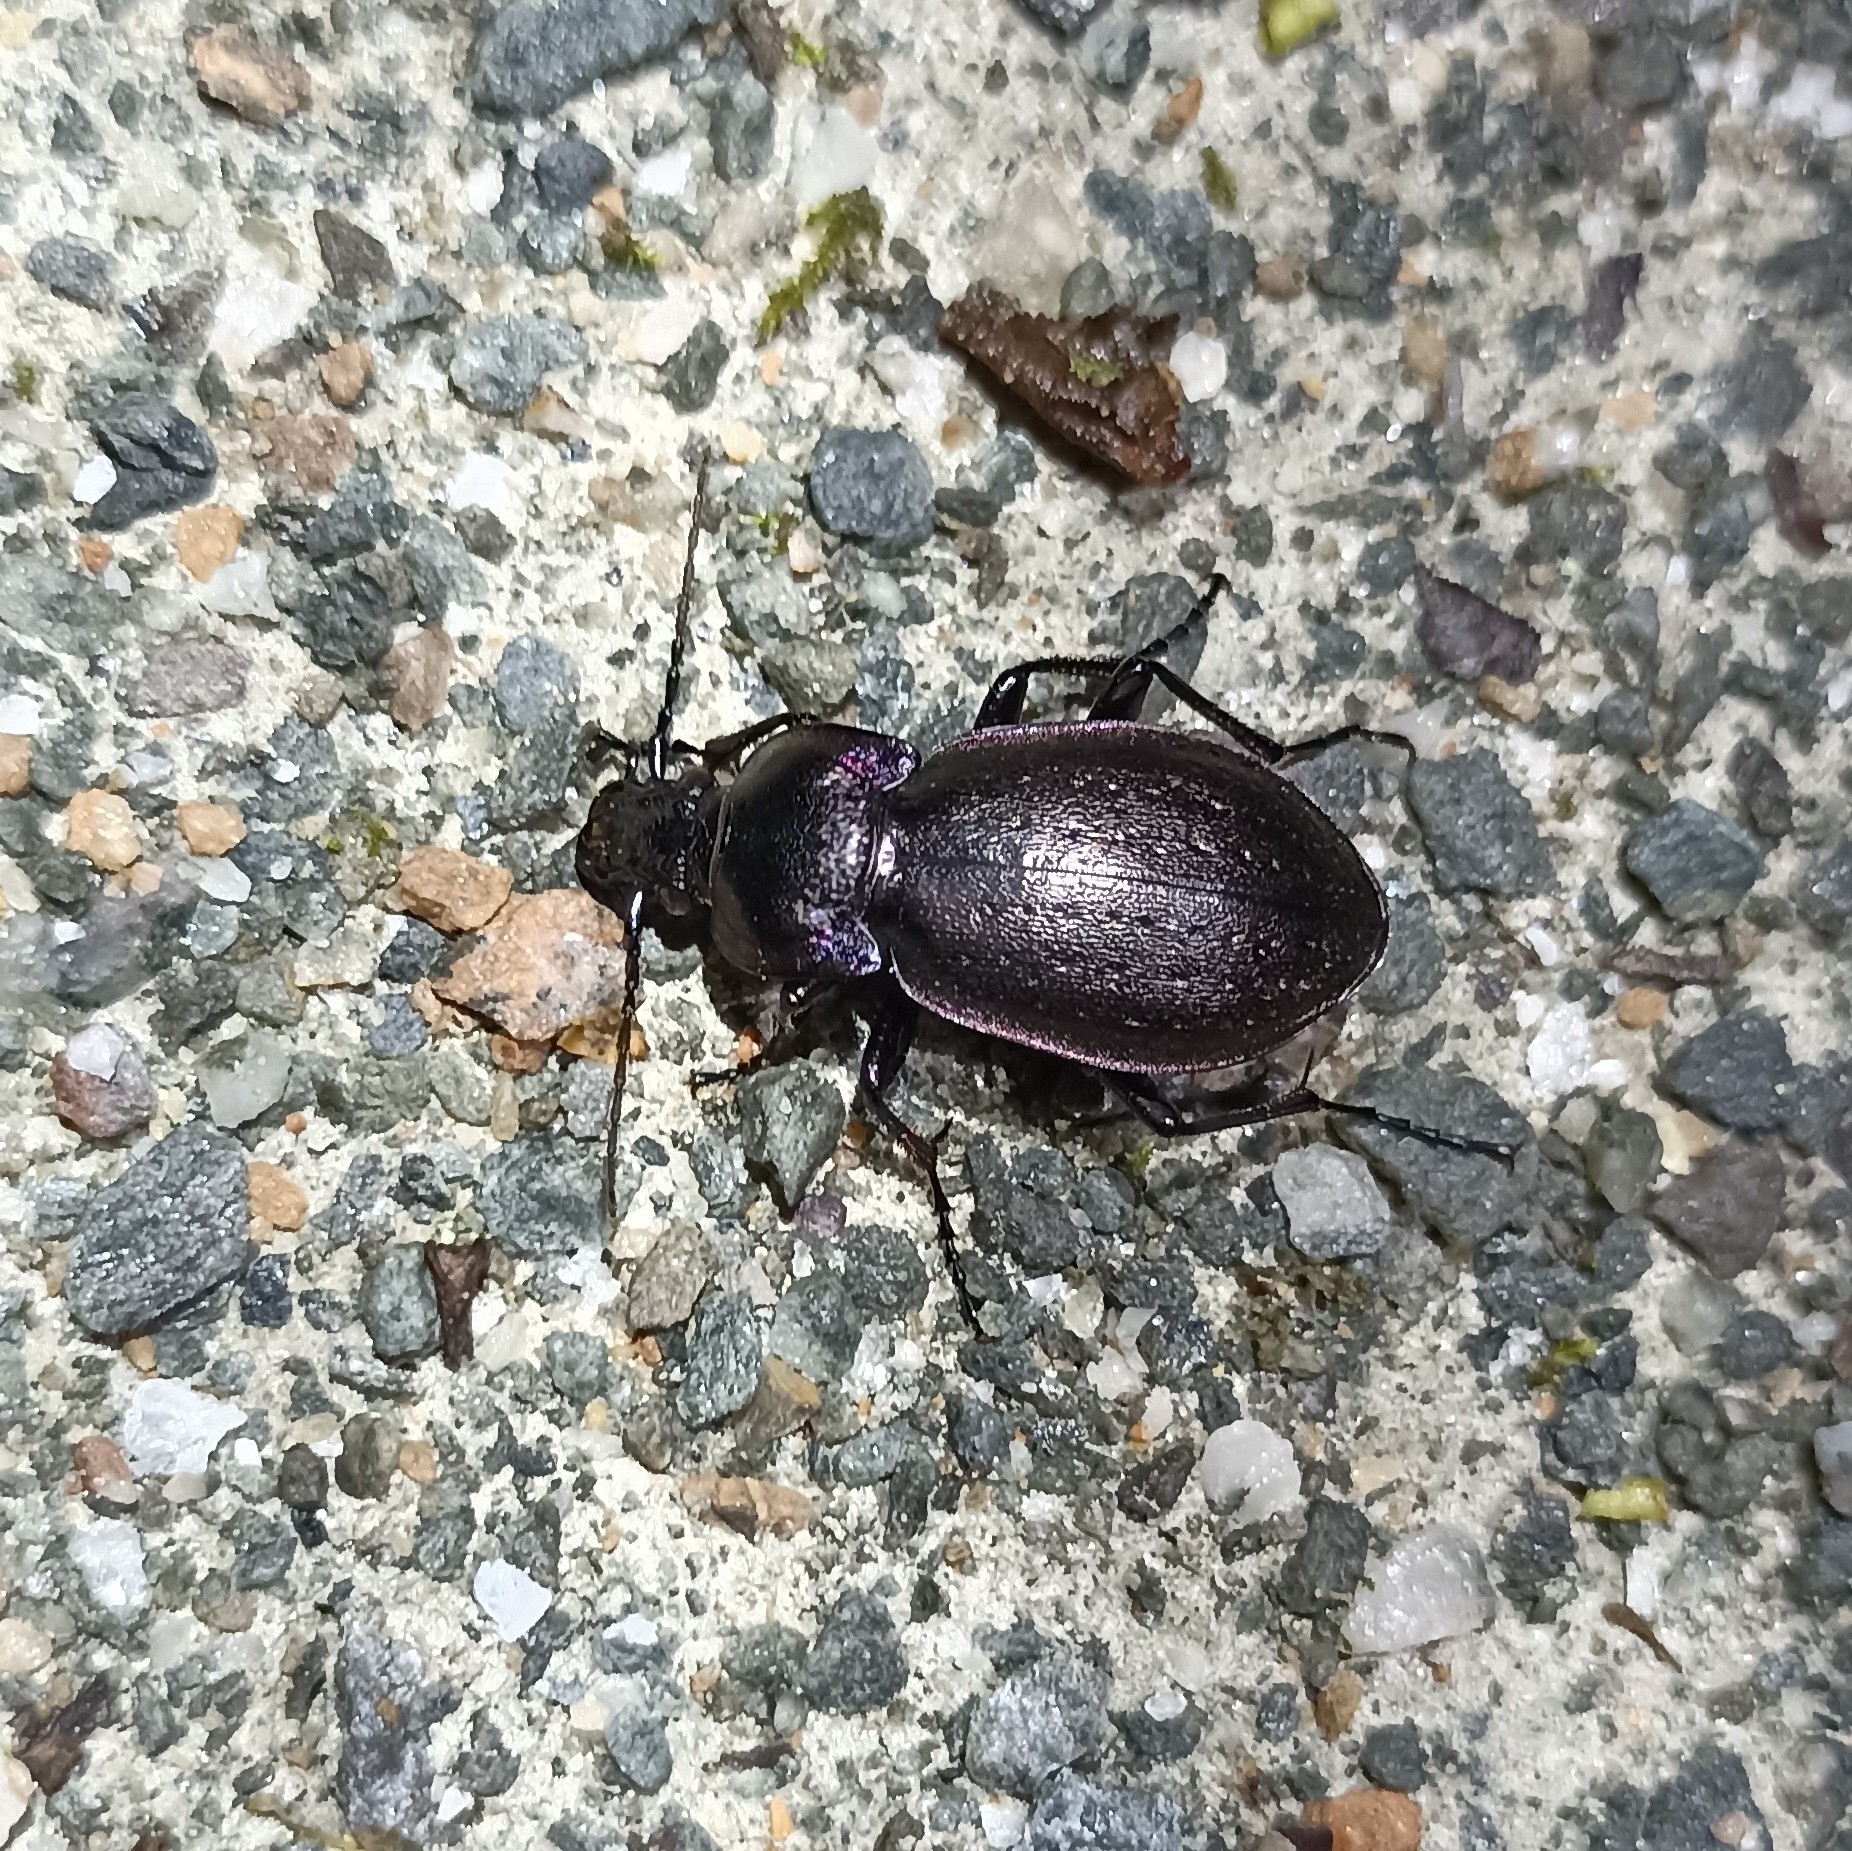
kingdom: Animalia
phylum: Arthropoda
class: Insecta
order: Coleoptera
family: Carabidae
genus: Carabus
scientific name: Carabus nemoralis
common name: European ground beetle
